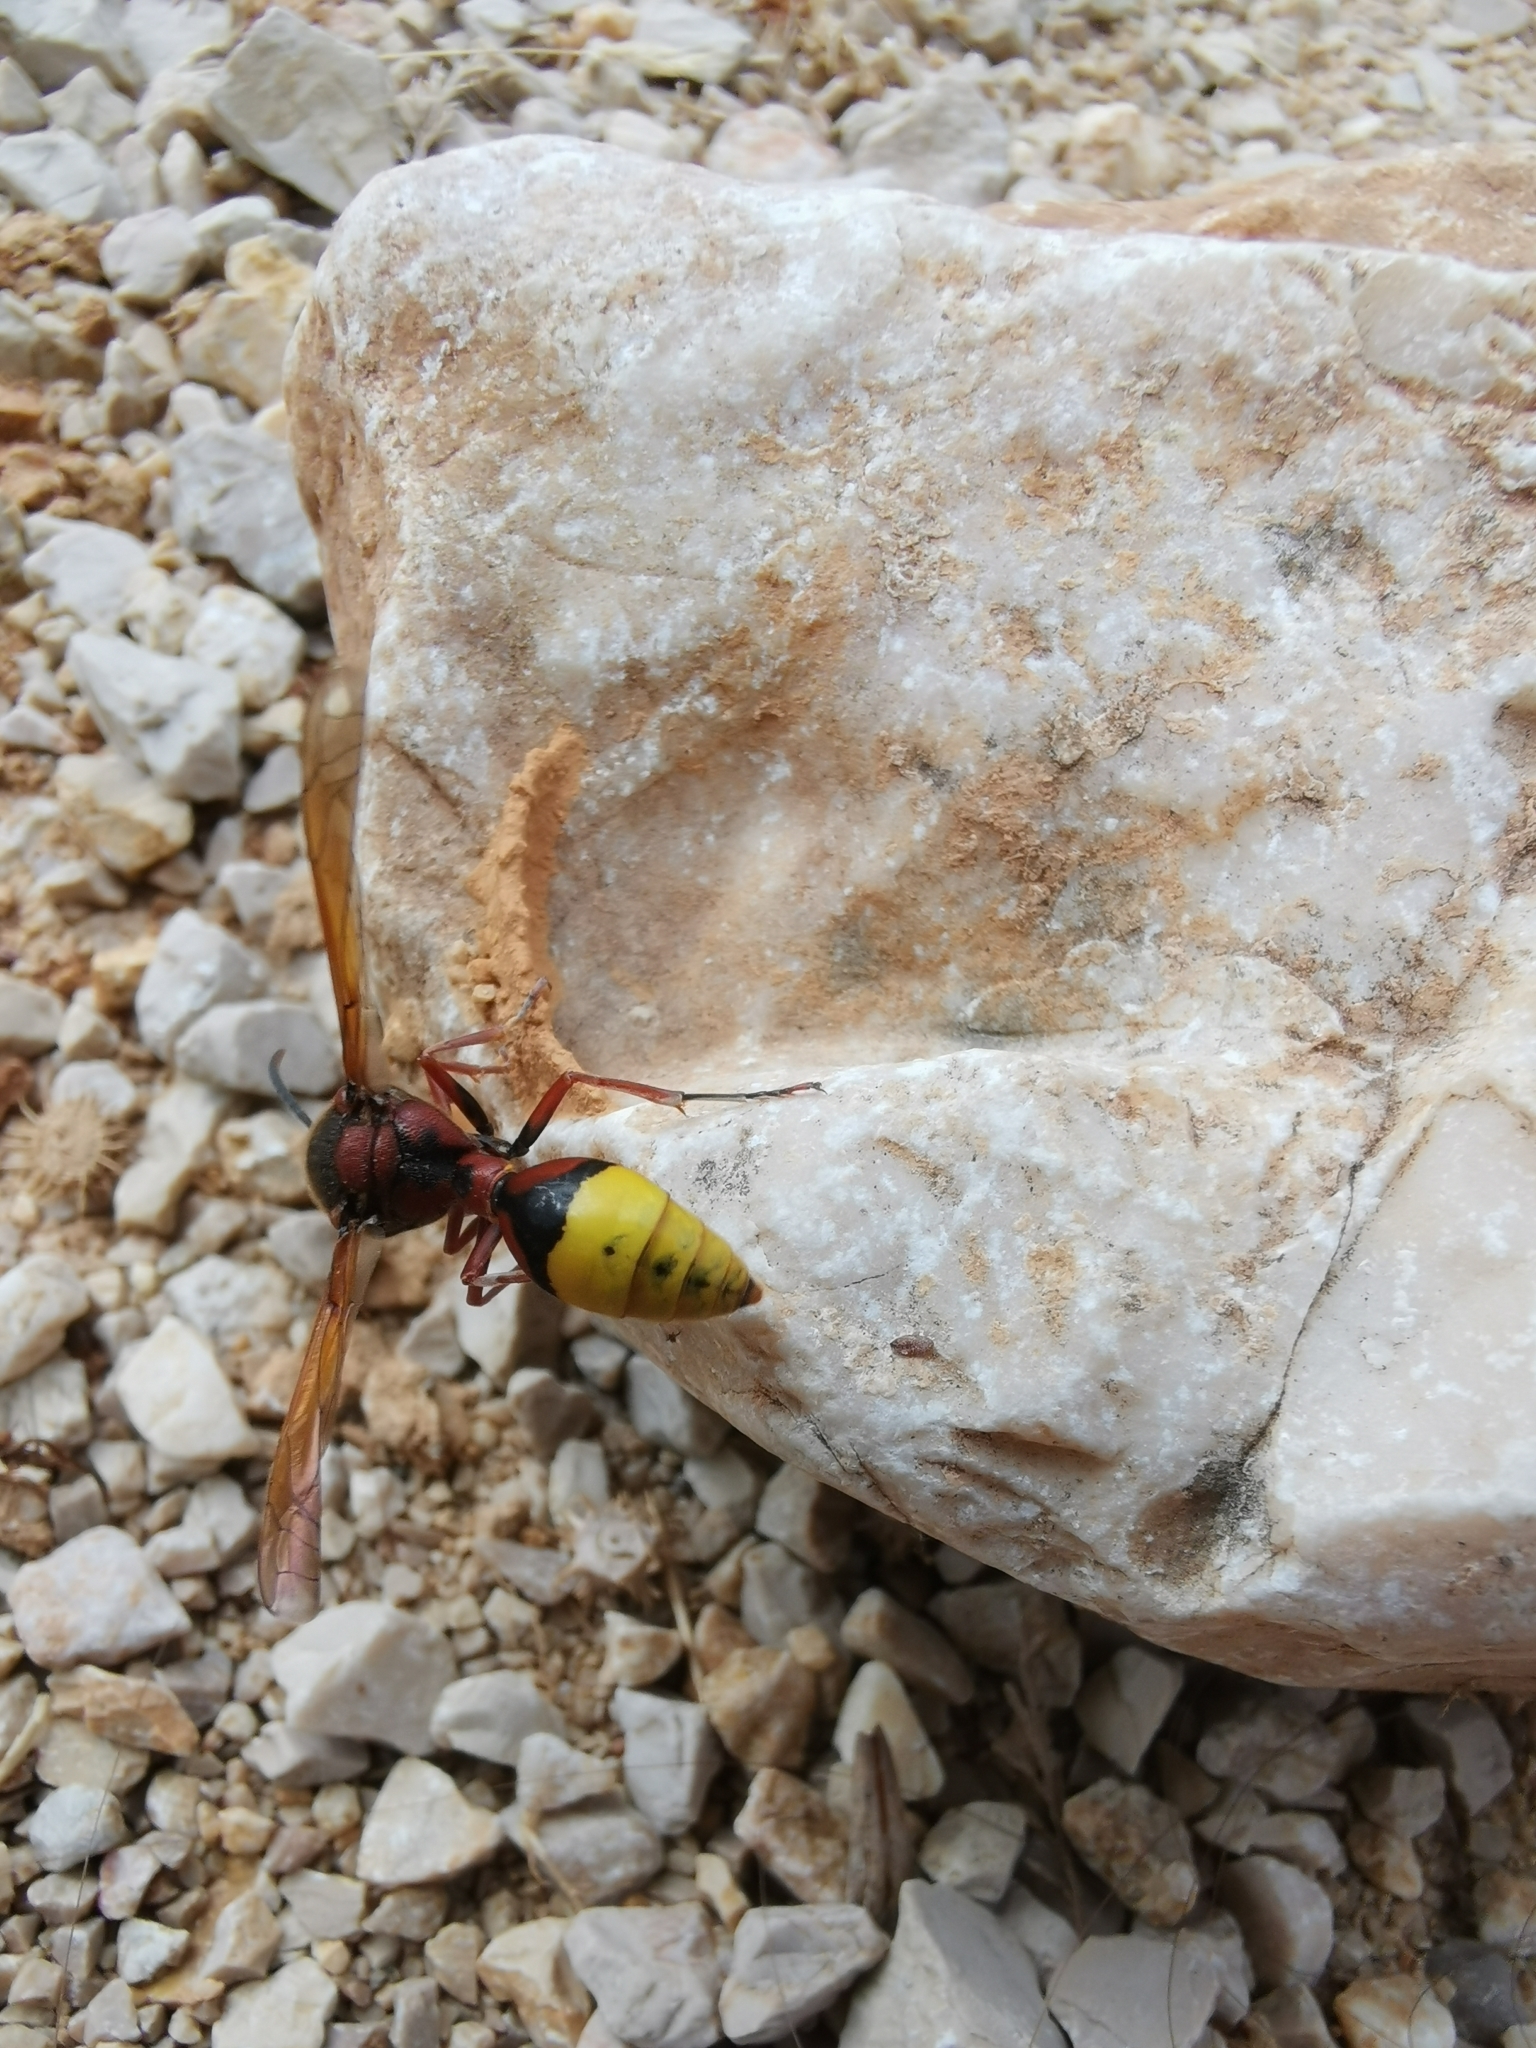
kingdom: Animalia
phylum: Arthropoda
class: Insecta
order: Hymenoptera
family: Eumenidae
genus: Delta
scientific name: Delta unguiculatum
